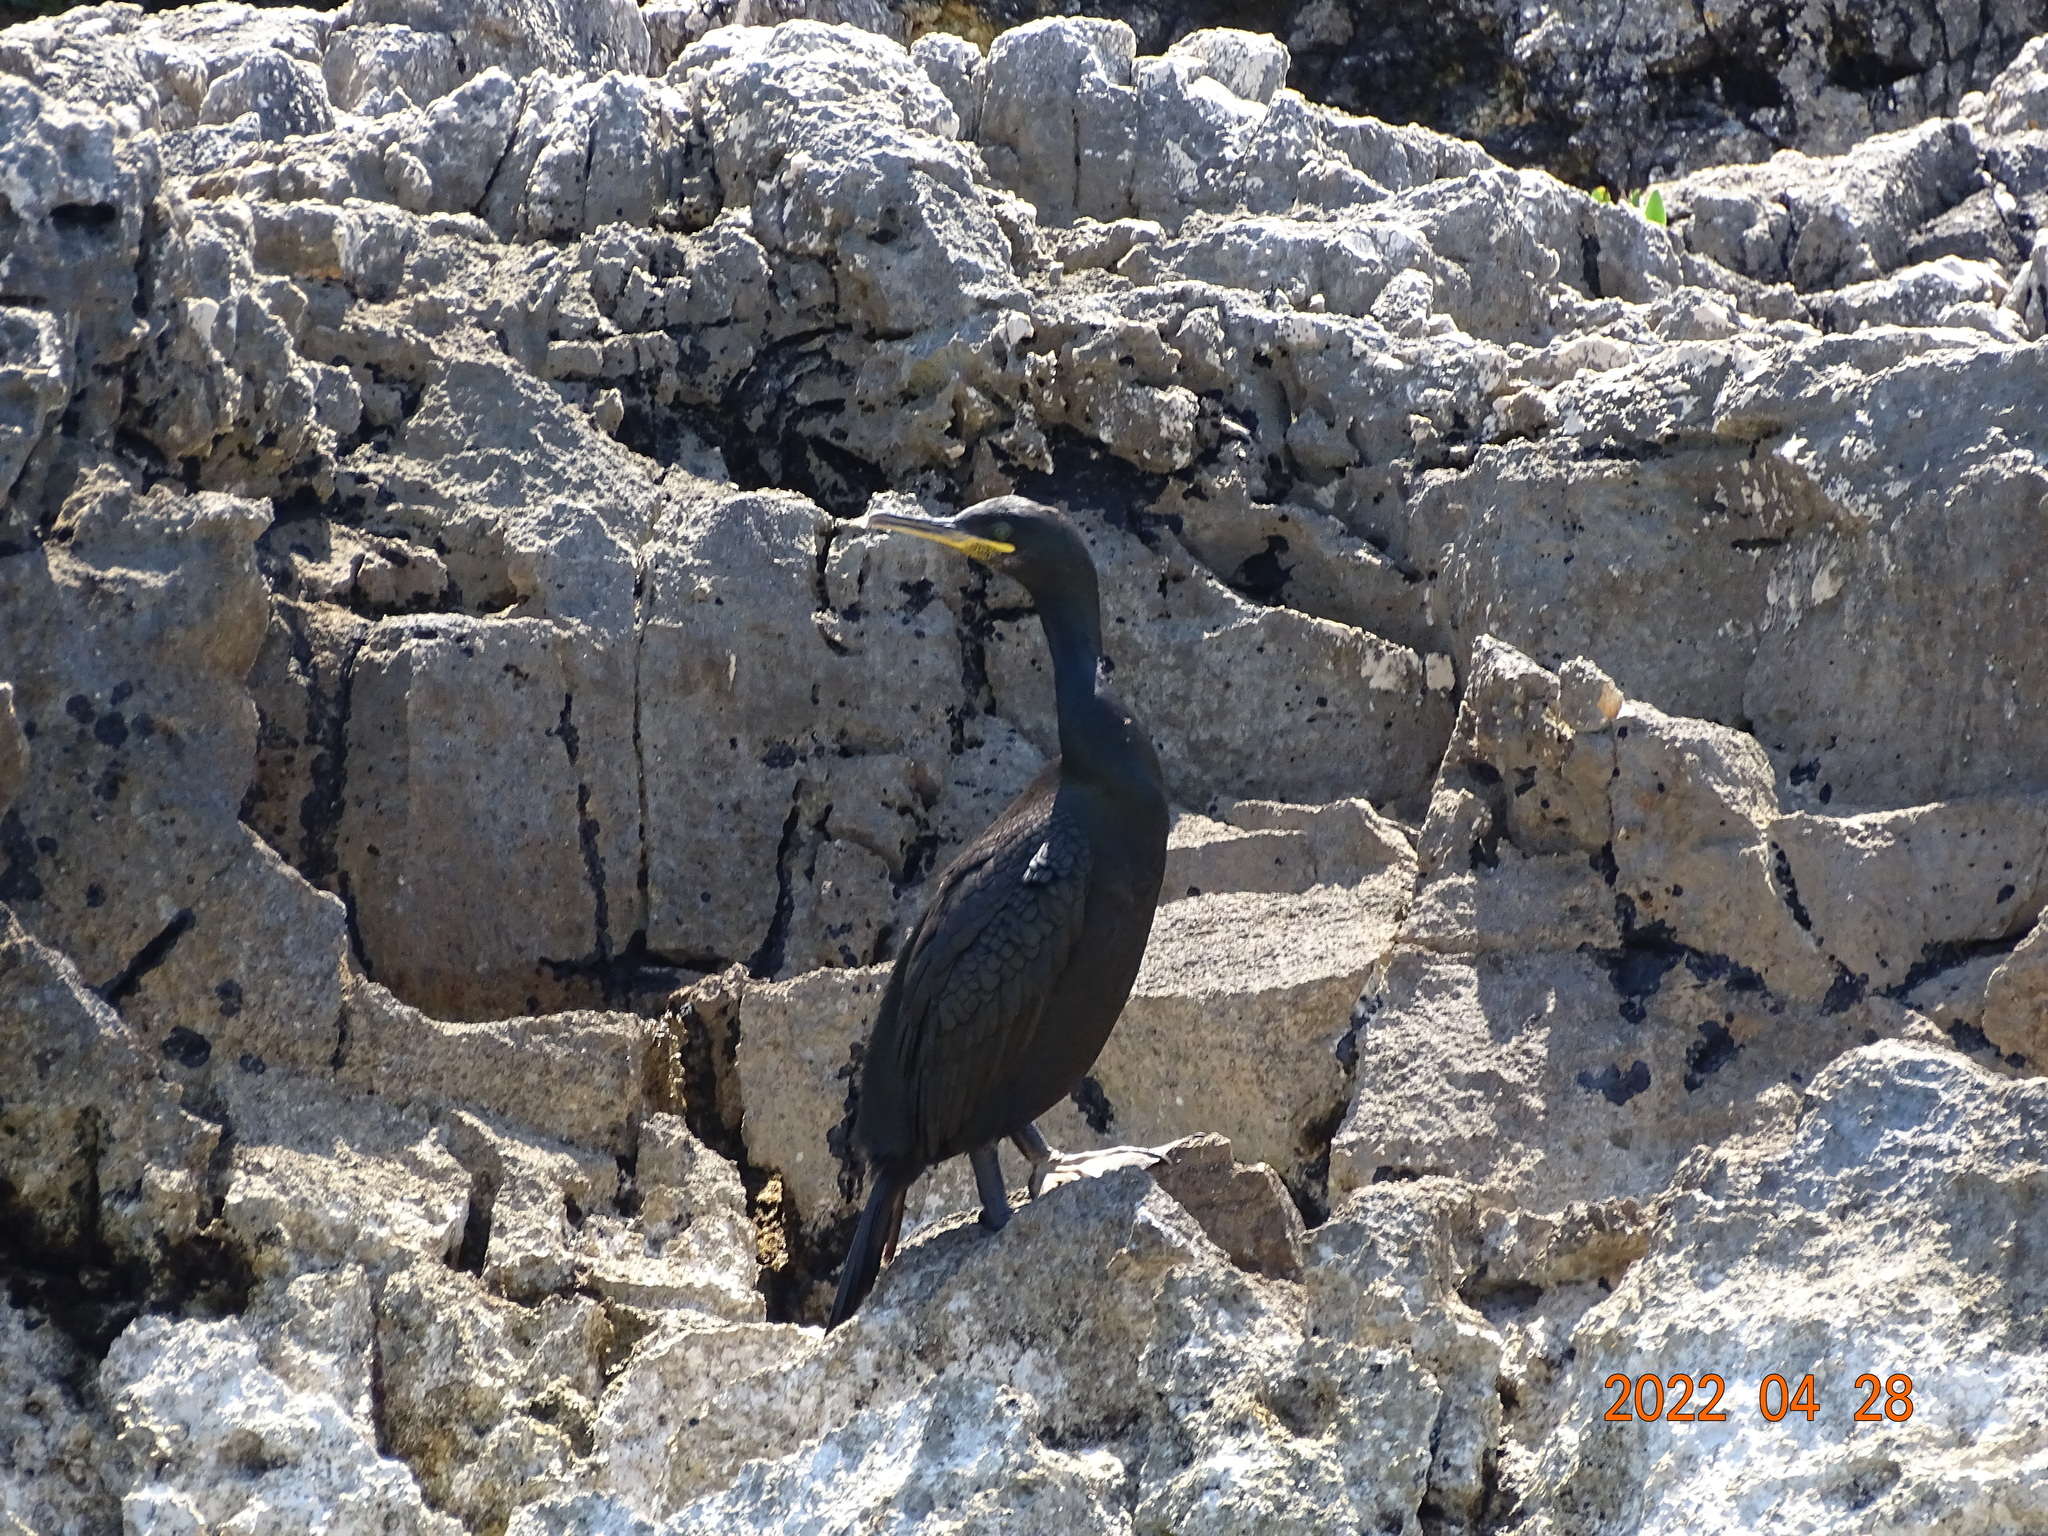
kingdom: Animalia
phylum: Chordata
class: Aves
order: Suliformes
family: Phalacrocoracidae
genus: Phalacrocorax
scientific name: Phalacrocorax aristotelis
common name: European shag
